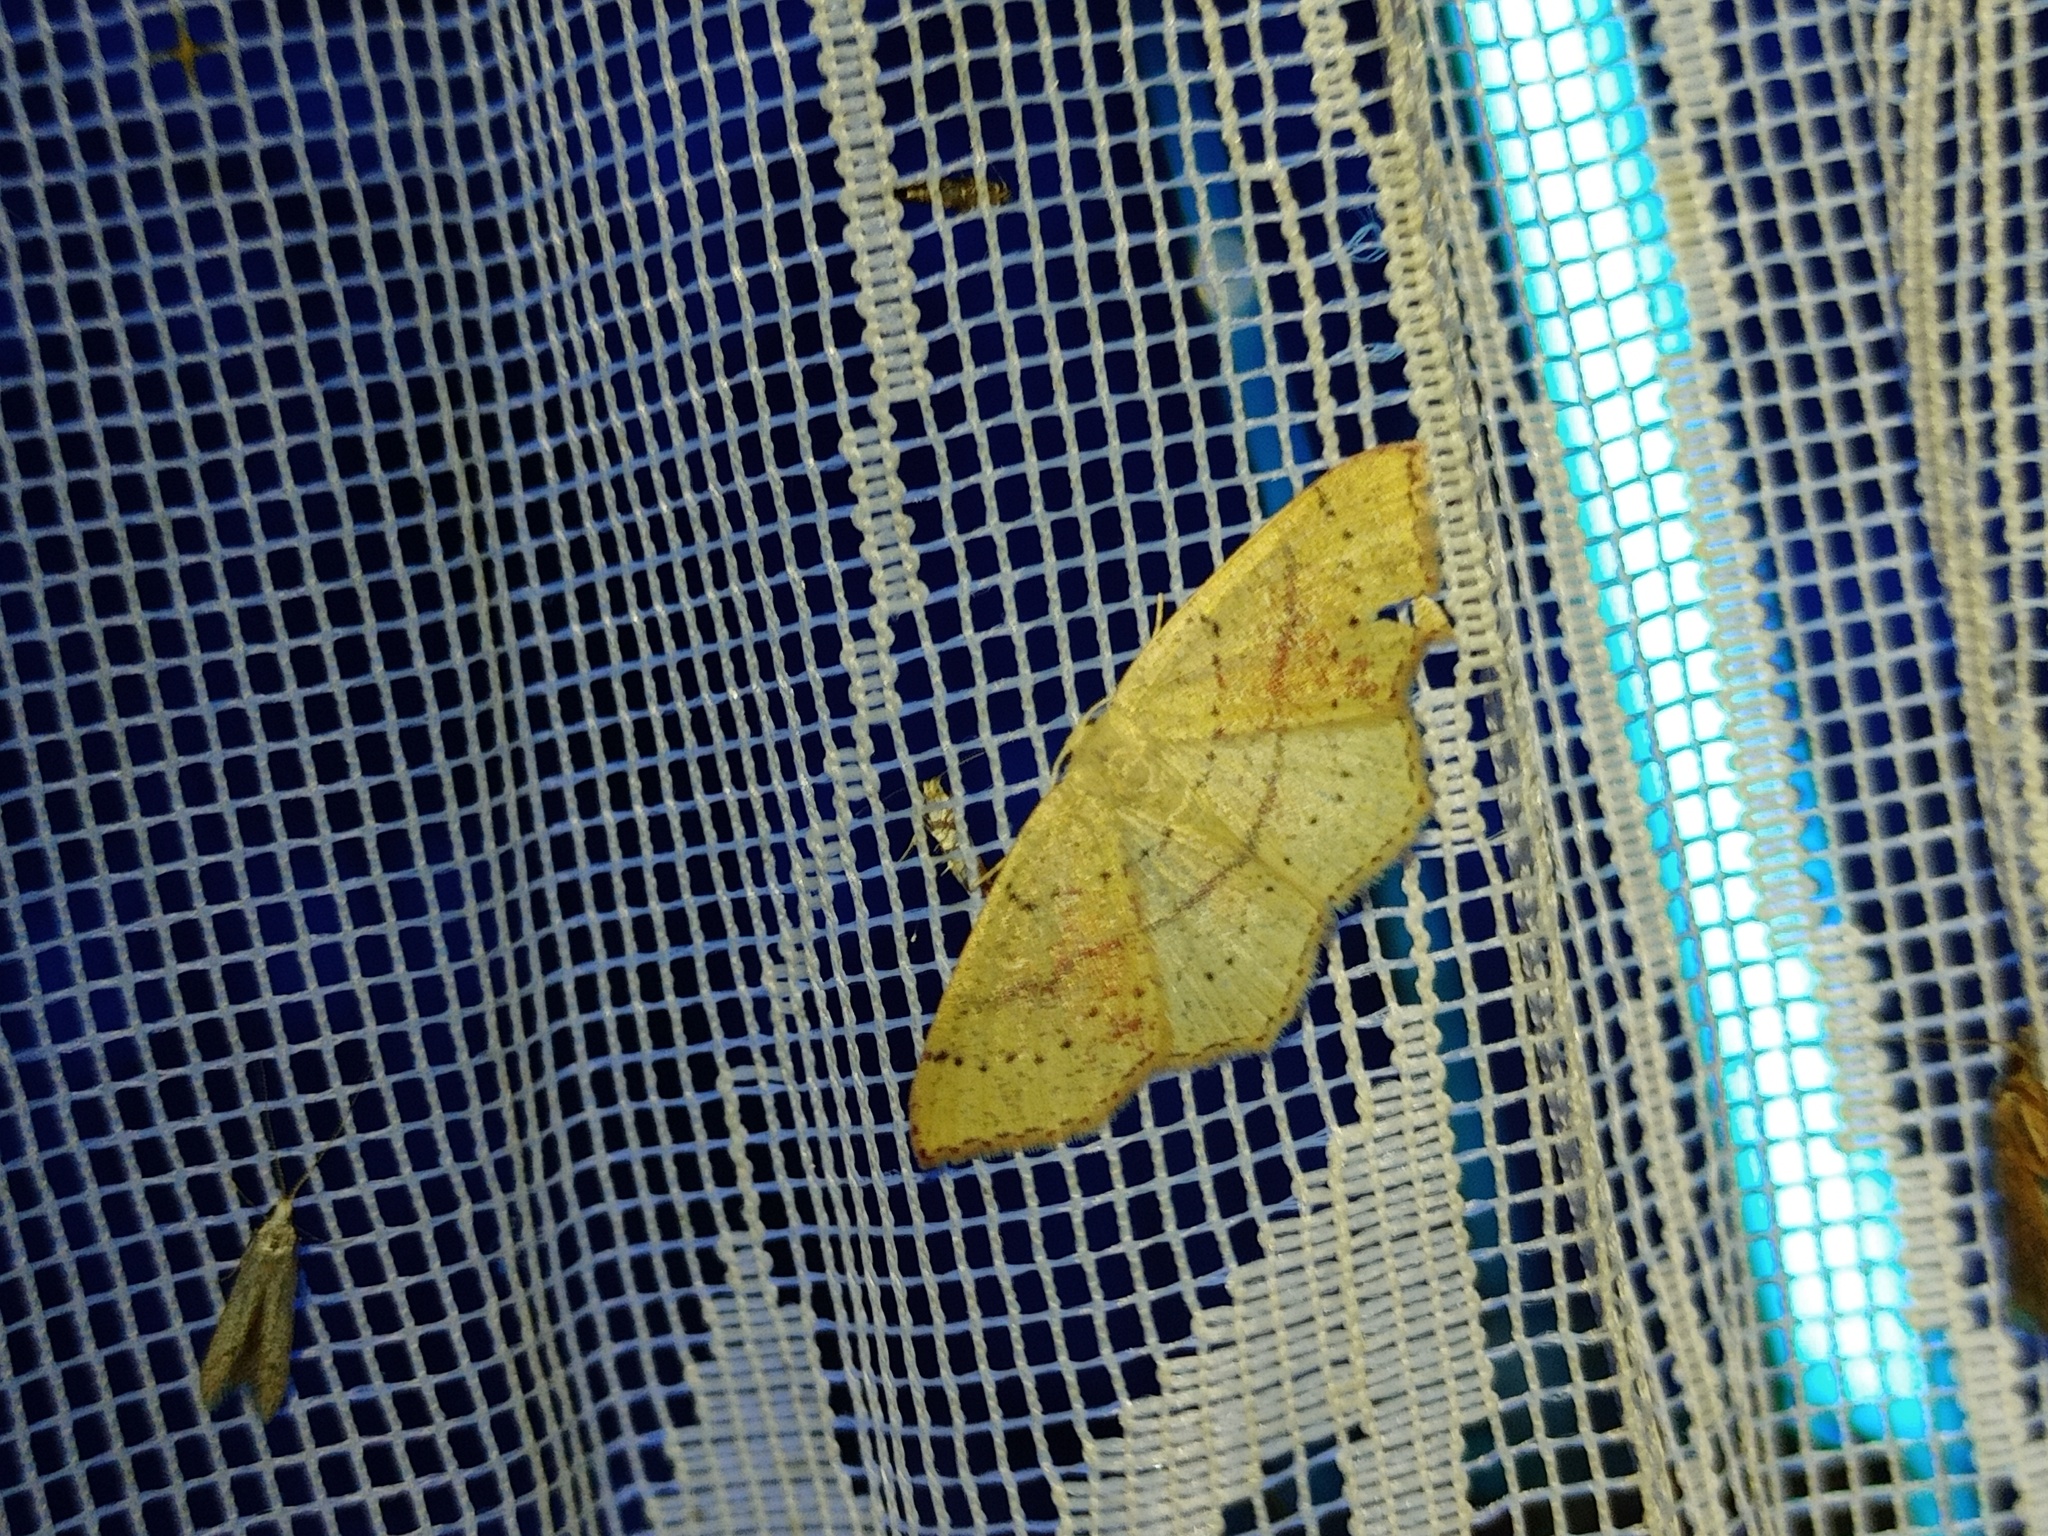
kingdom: Animalia
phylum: Arthropoda
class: Insecta
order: Lepidoptera
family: Geometridae
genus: Cyclophora
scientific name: Cyclophora punctaria
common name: Maiden's blush
